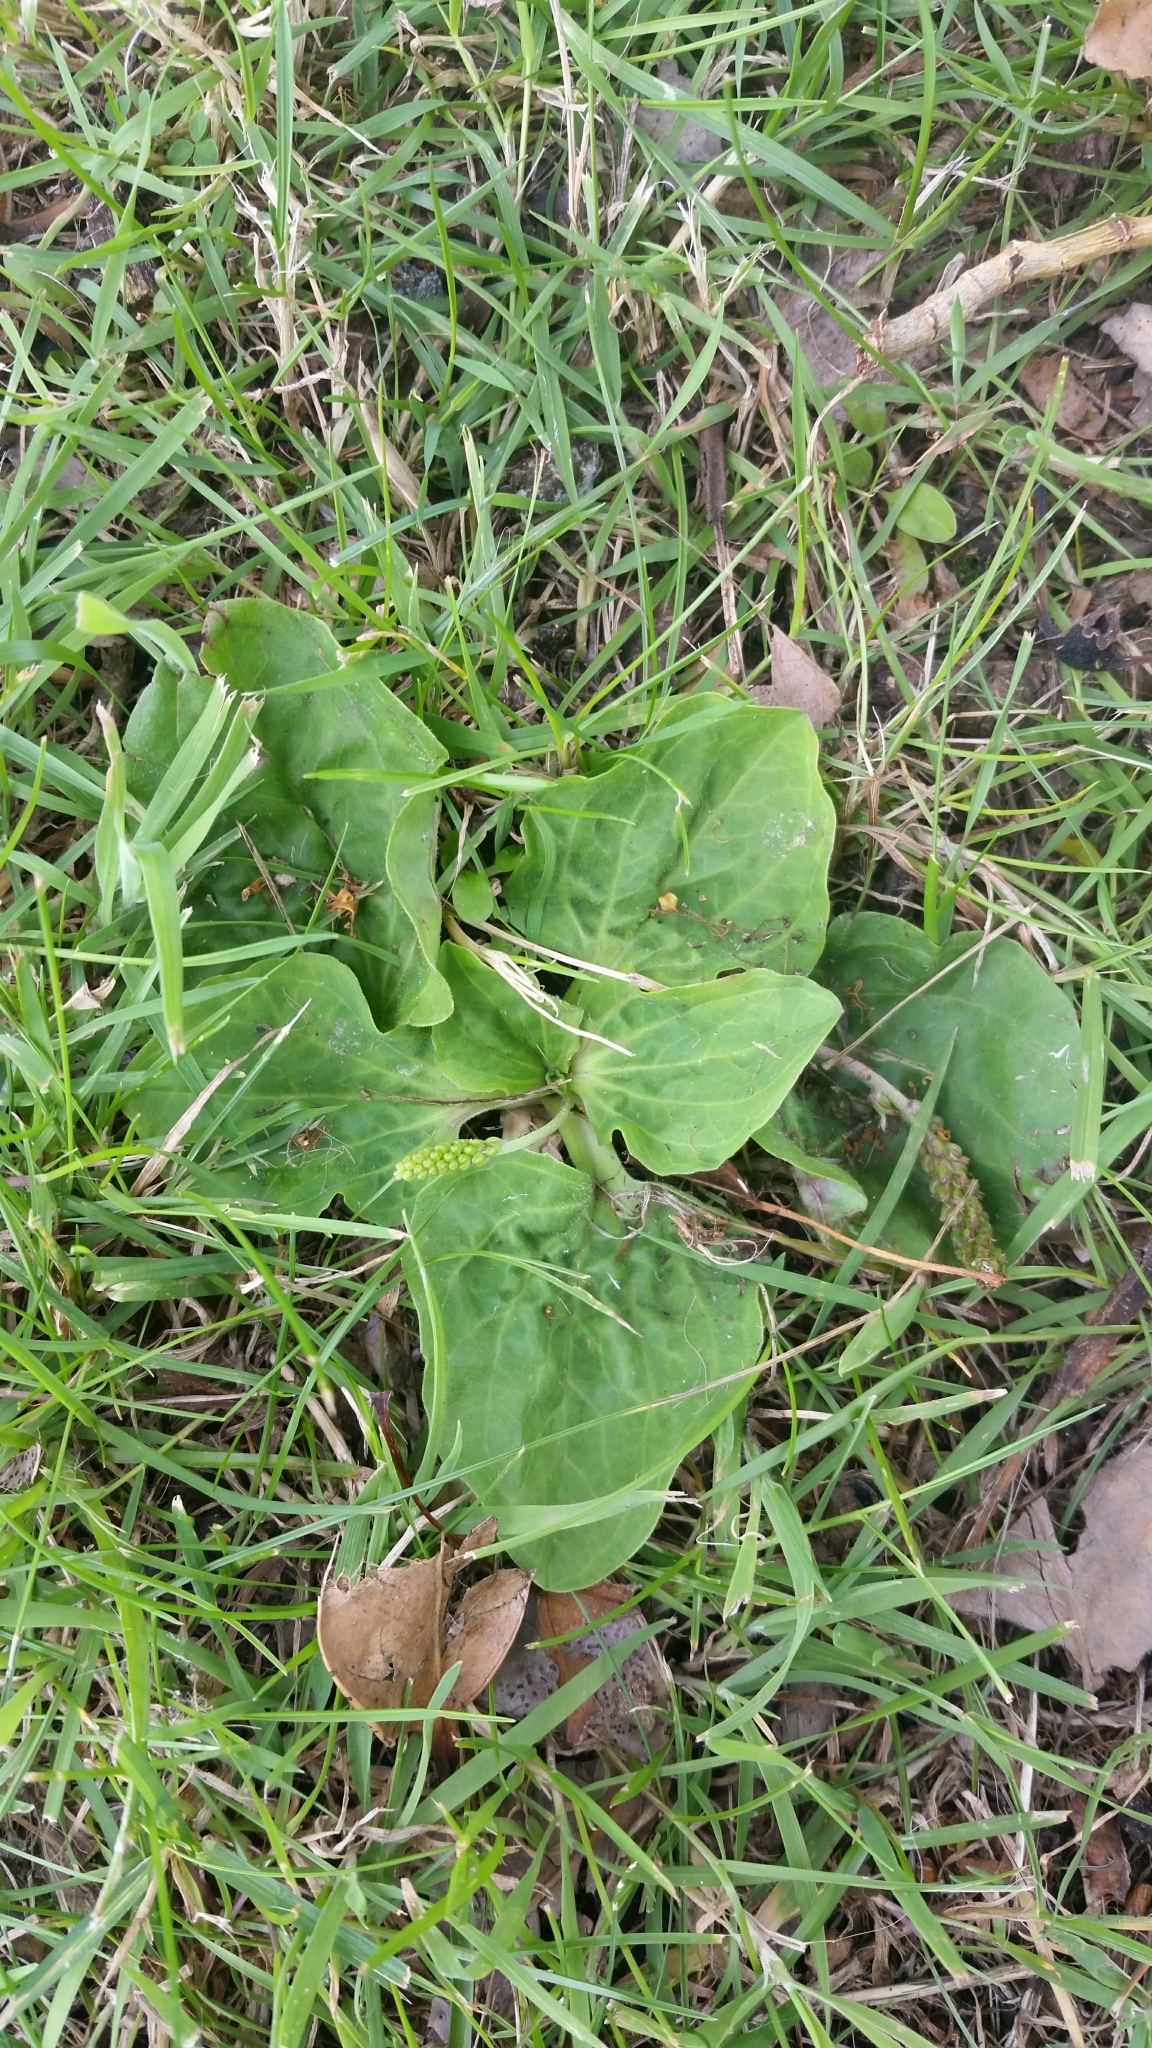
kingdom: Plantae
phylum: Tracheophyta
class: Magnoliopsida
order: Lamiales
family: Plantaginaceae
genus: Plantago
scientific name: Plantago major
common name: Common plantain
